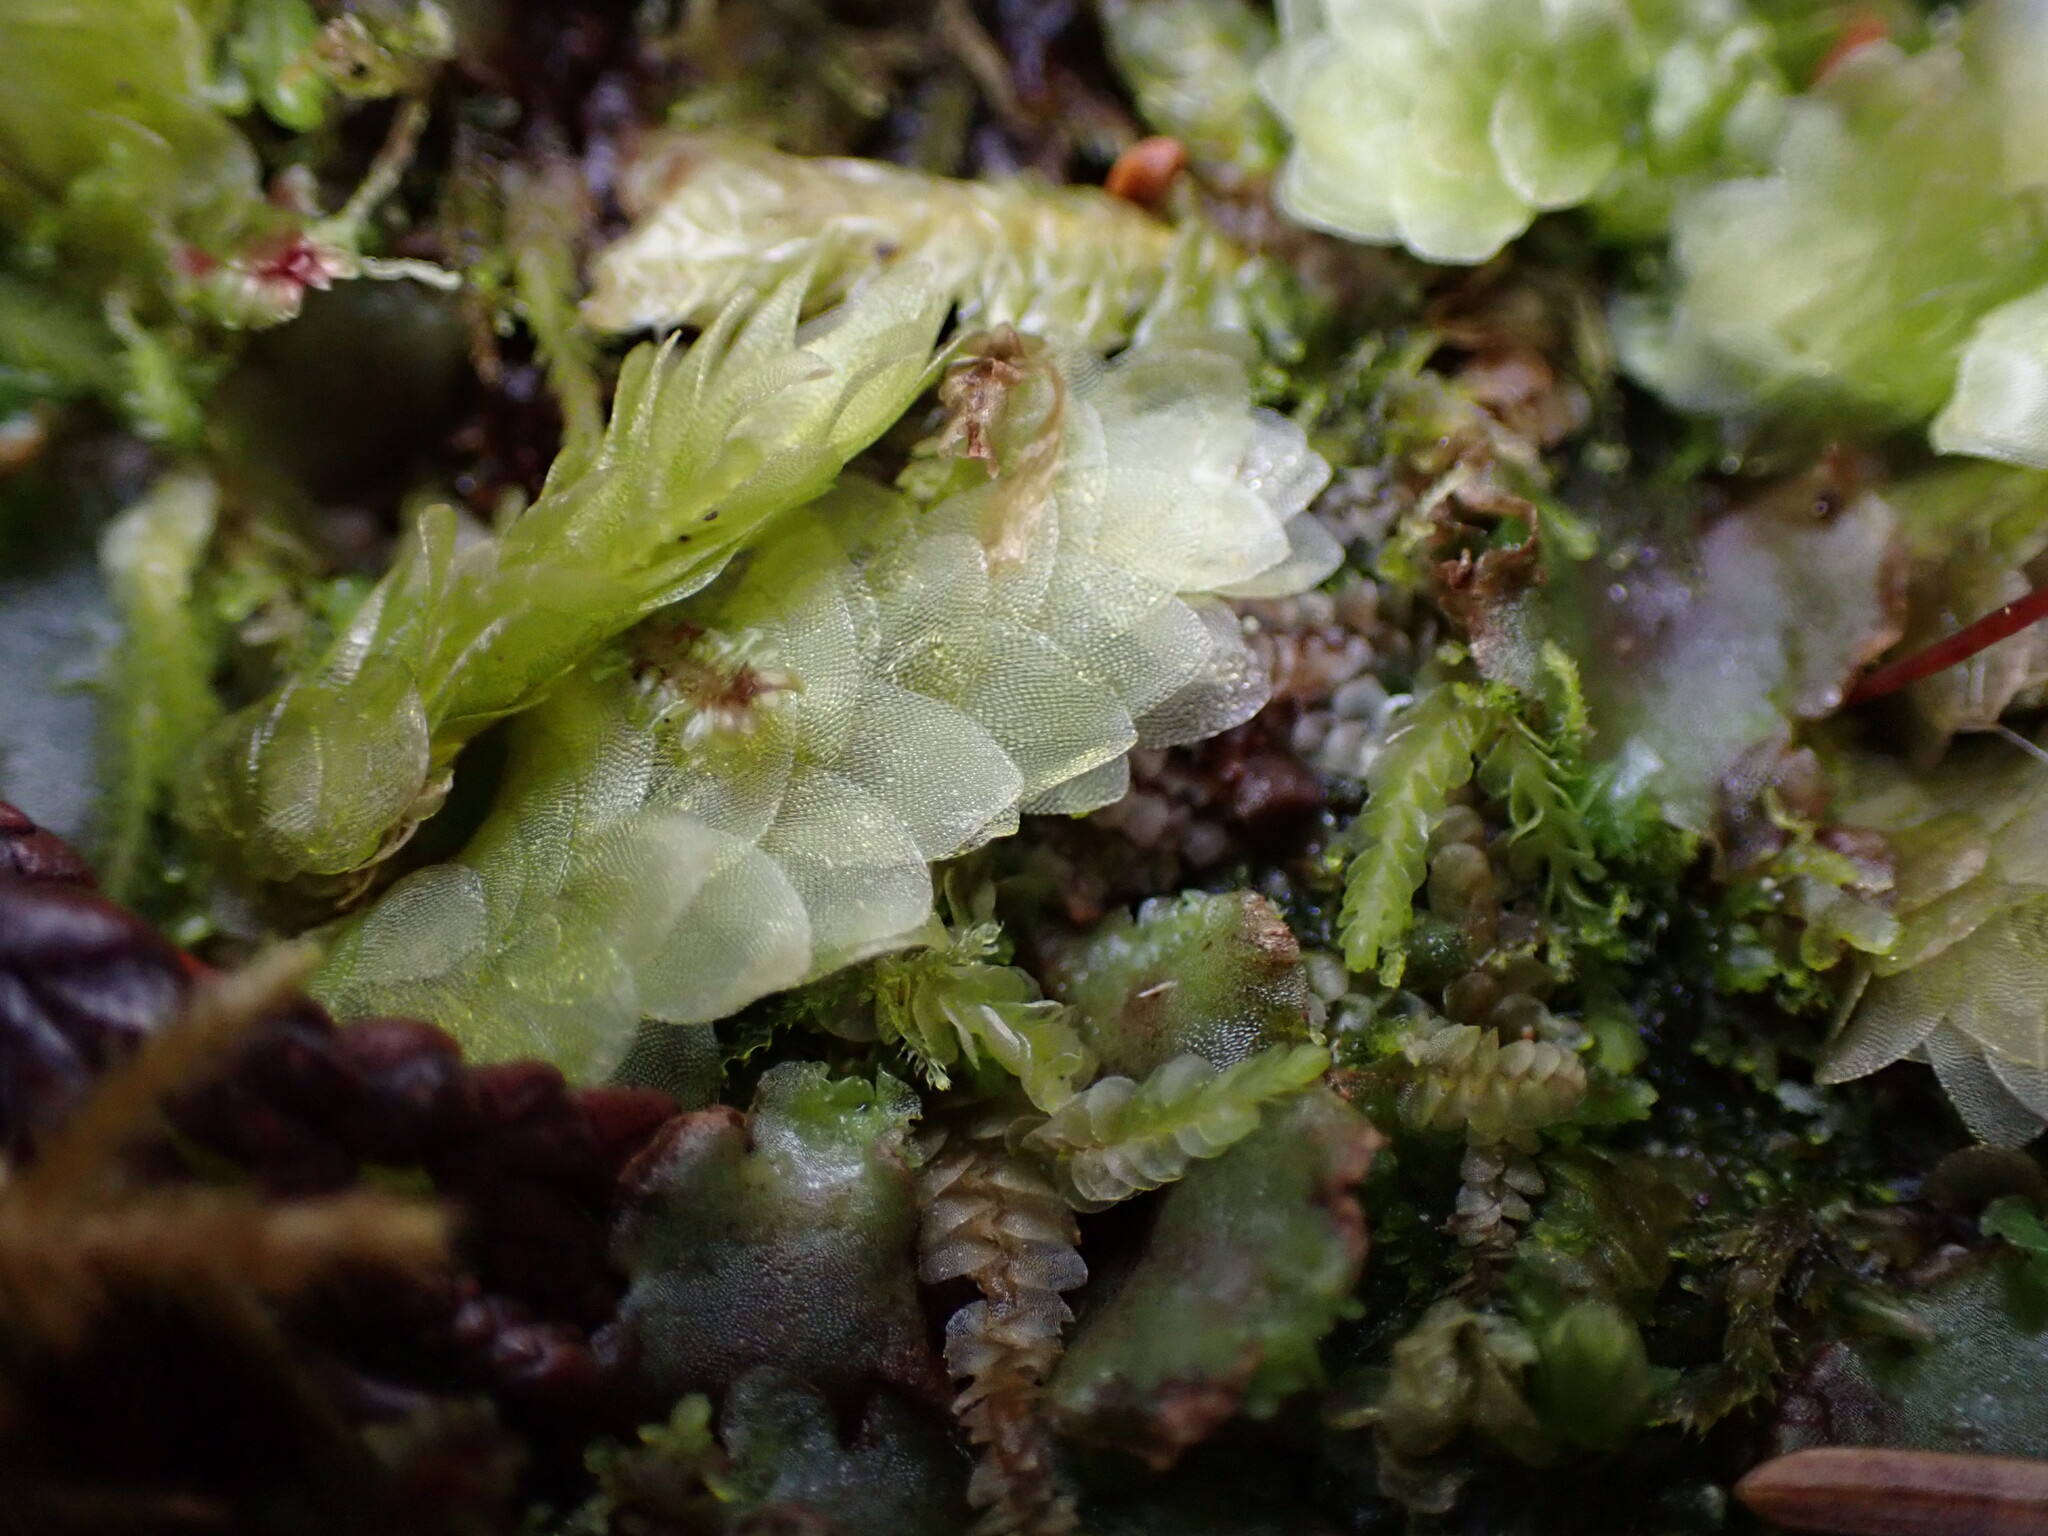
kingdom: Plantae
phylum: Bryophyta
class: Bryopsida
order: Hookeriales
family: Hookeriaceae
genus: Hookeria
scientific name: Hookeria lucens
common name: Shining hookeria
